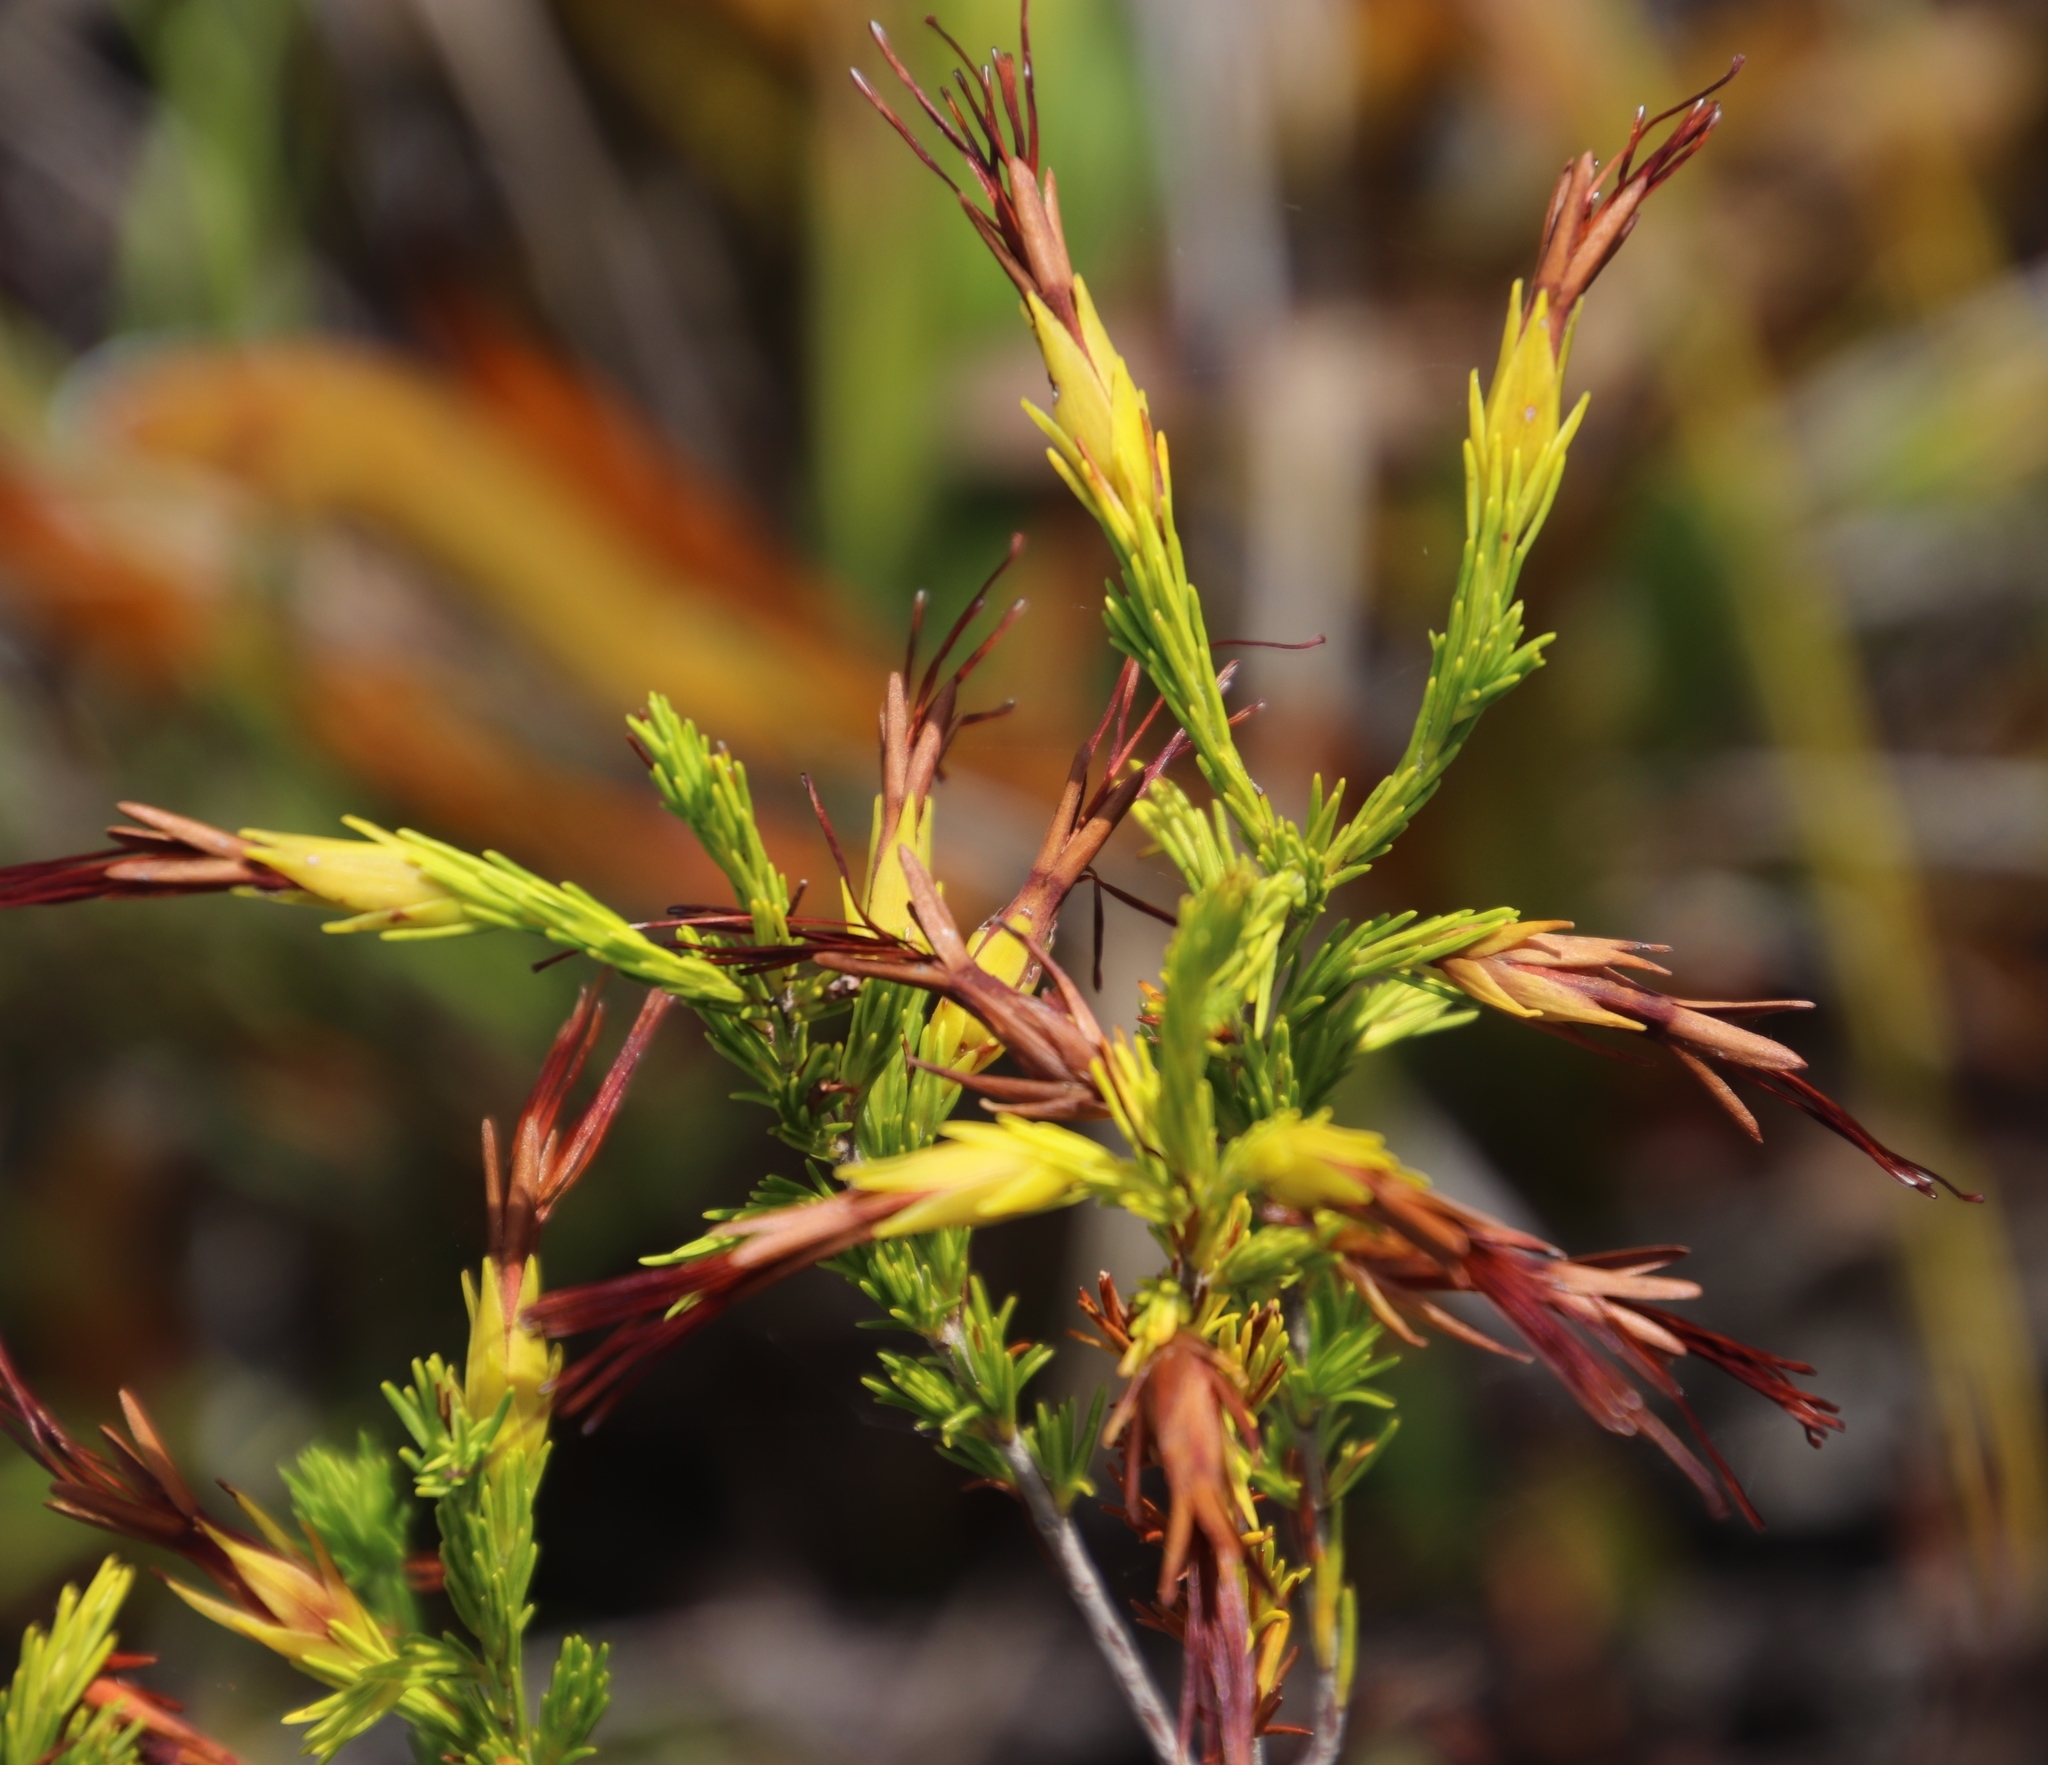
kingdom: Plantae
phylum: Tracheophyta
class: Magnoliopsida
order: Ericales
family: Ericaceae
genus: Erica
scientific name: Erica melastoma
